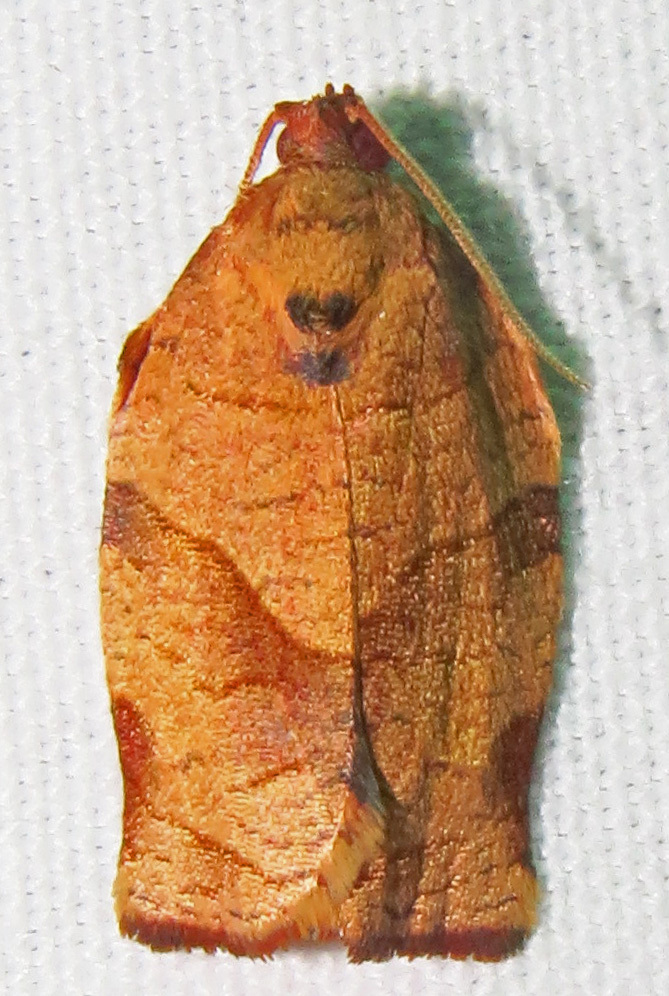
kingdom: Animalia
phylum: Arthropoda
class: Insecta
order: Lepidoptera
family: Tortricidae
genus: Choristoneura
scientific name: Choristoneura rosaceana
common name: Oblique-banded leafroller moth
